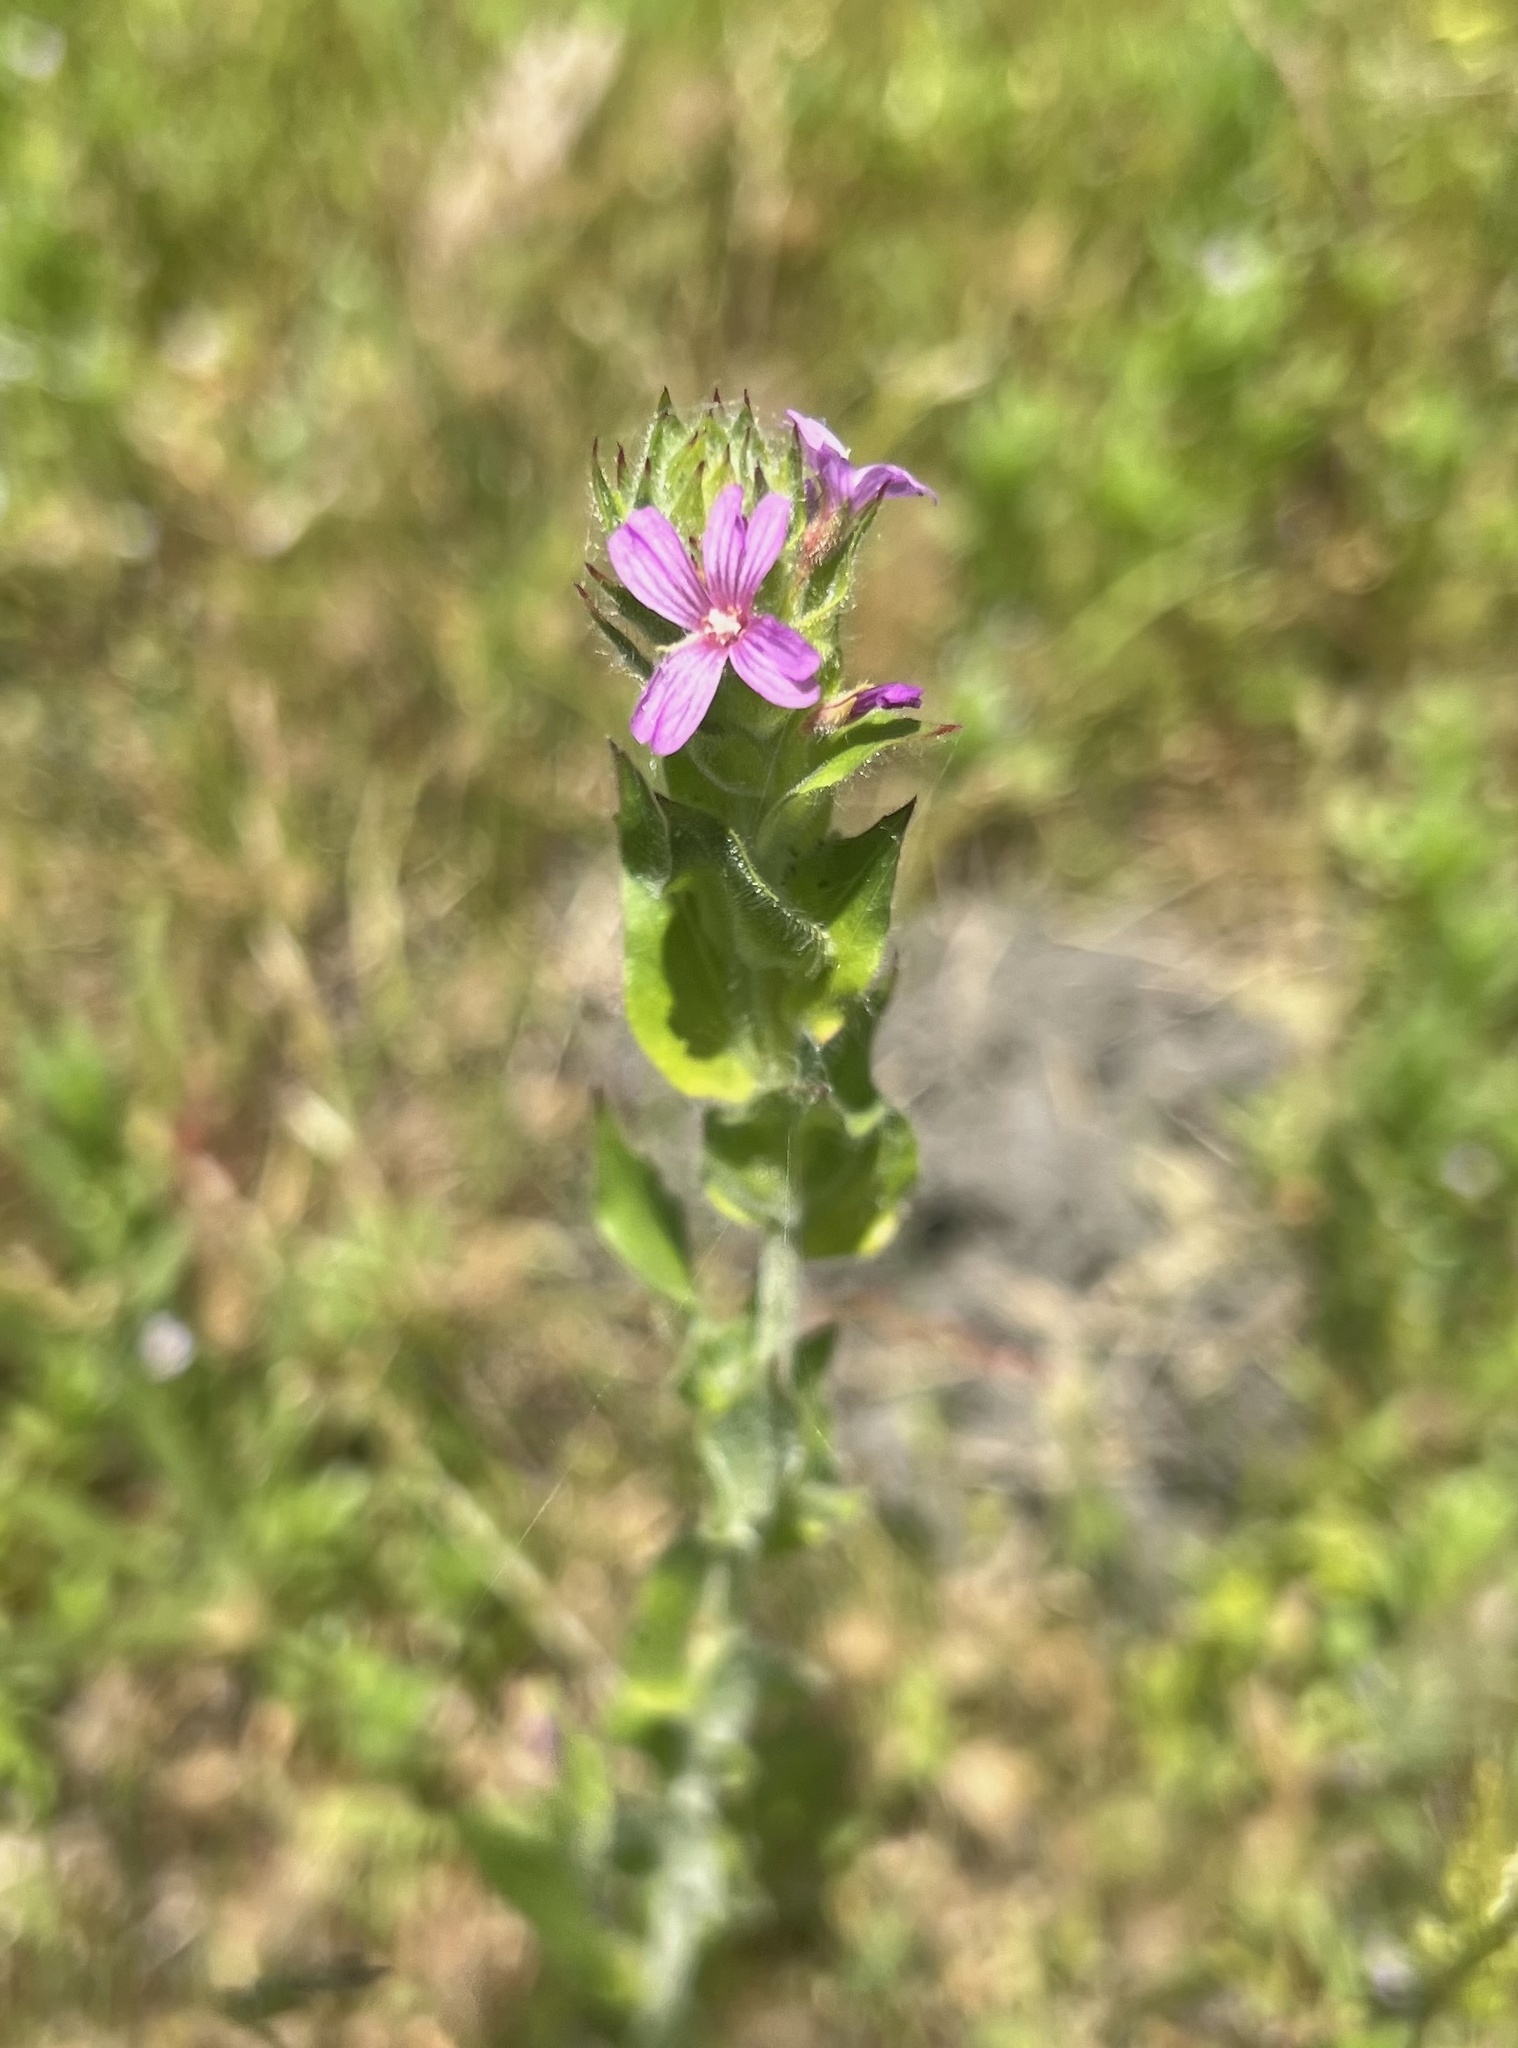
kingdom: Plantae
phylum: Tracheophyta
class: Magnoliopsida
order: Myrtales
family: Onagraceae
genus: Epilobium
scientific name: Epilobium densiflorum
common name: Dense spike-primrose
